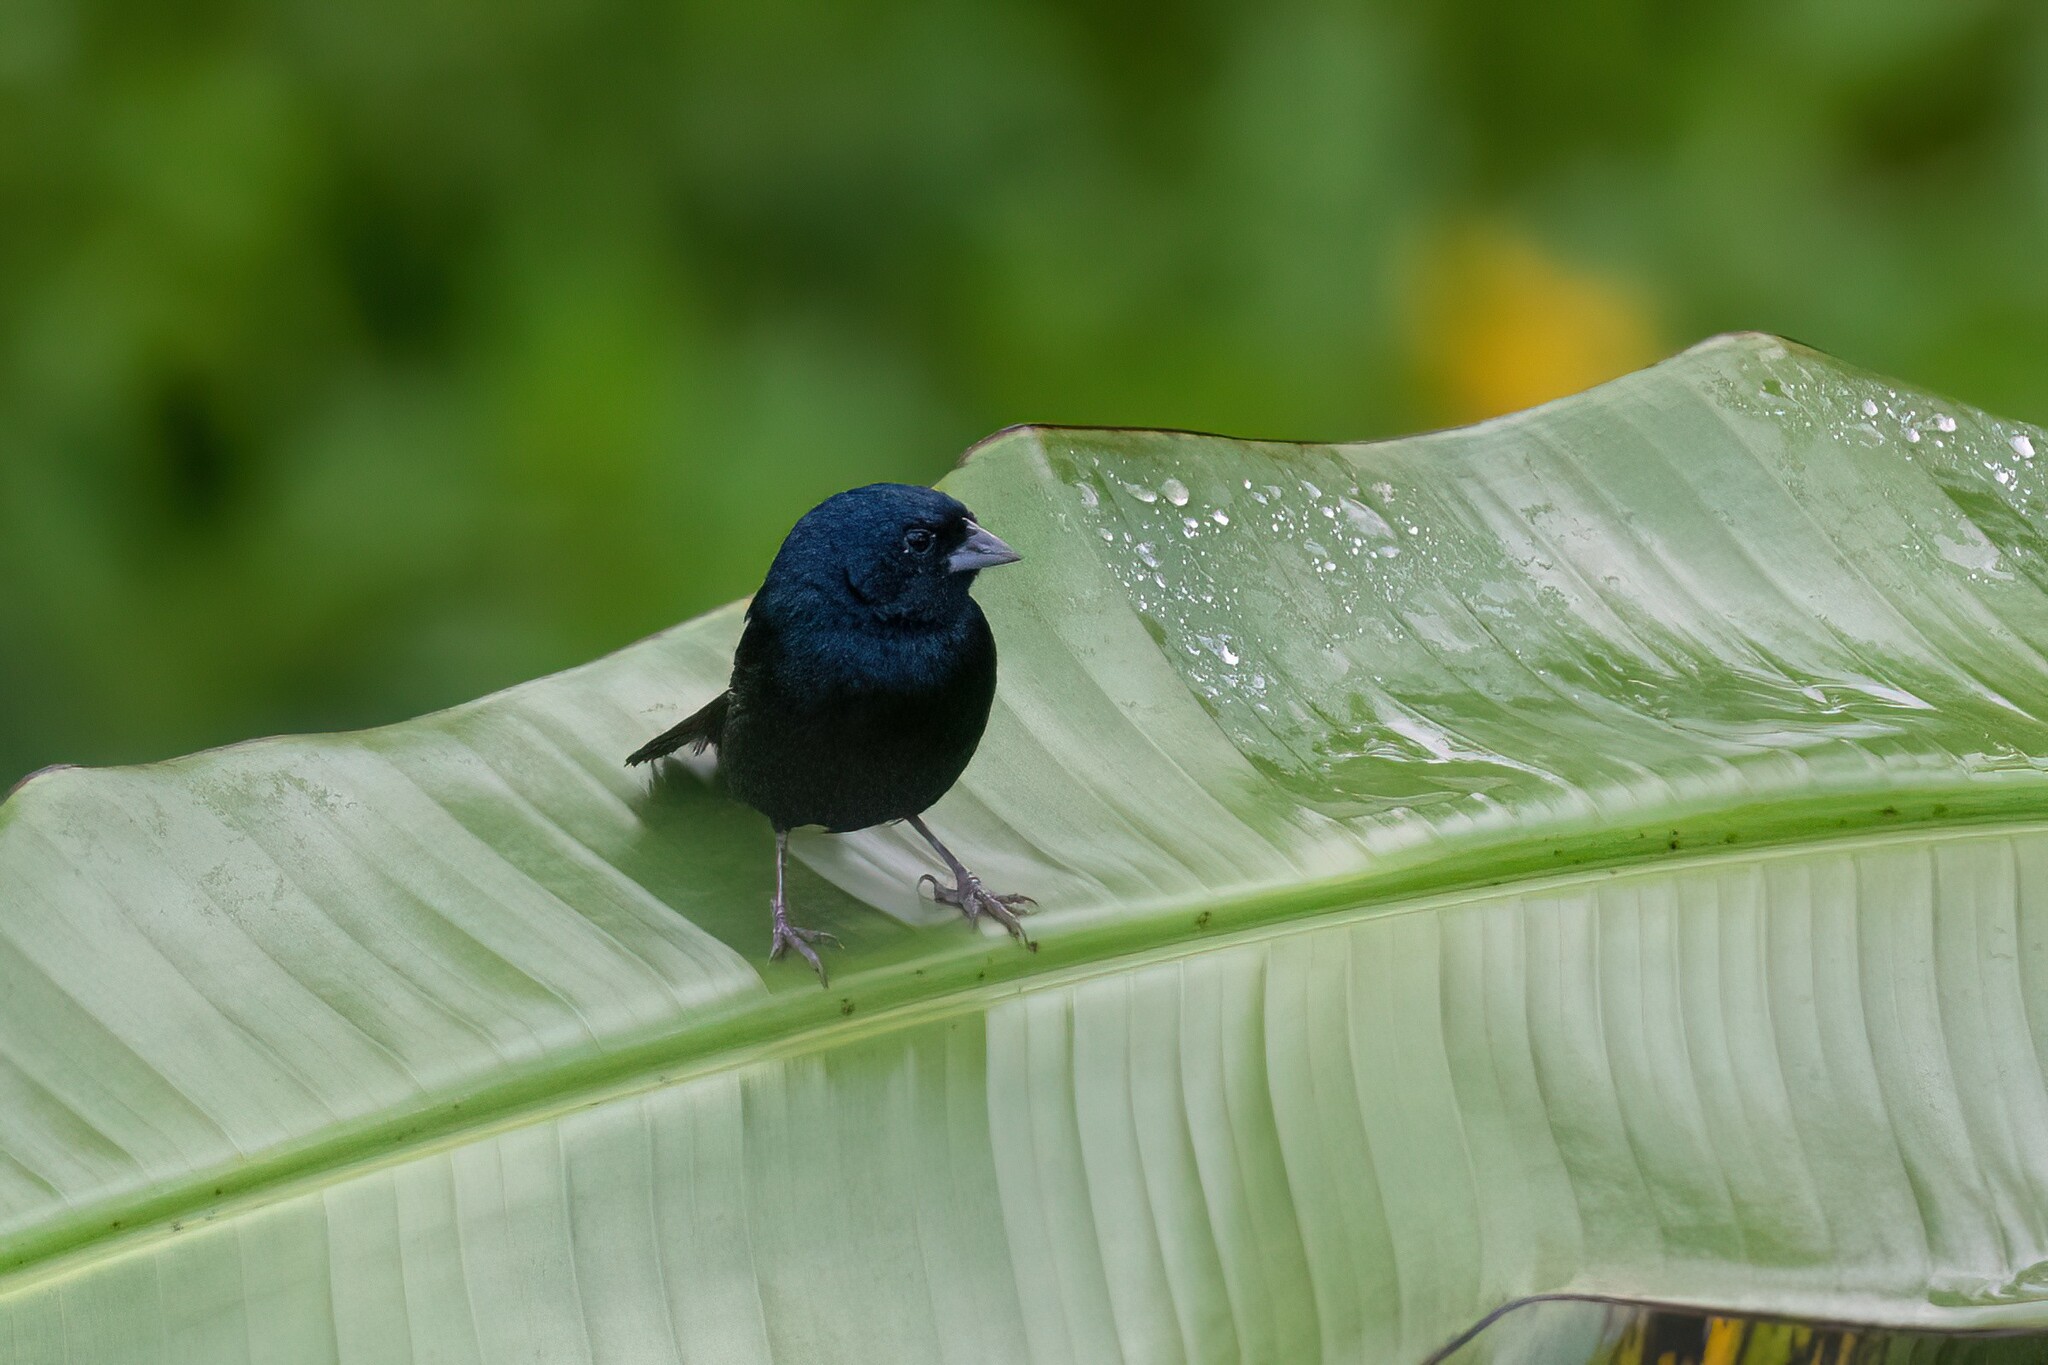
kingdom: Animalia
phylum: Chordata
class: Aves
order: Passeriformes
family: Thraupidae
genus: Volatinia
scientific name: Volatinia jacarina
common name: Blue-black grassquit
